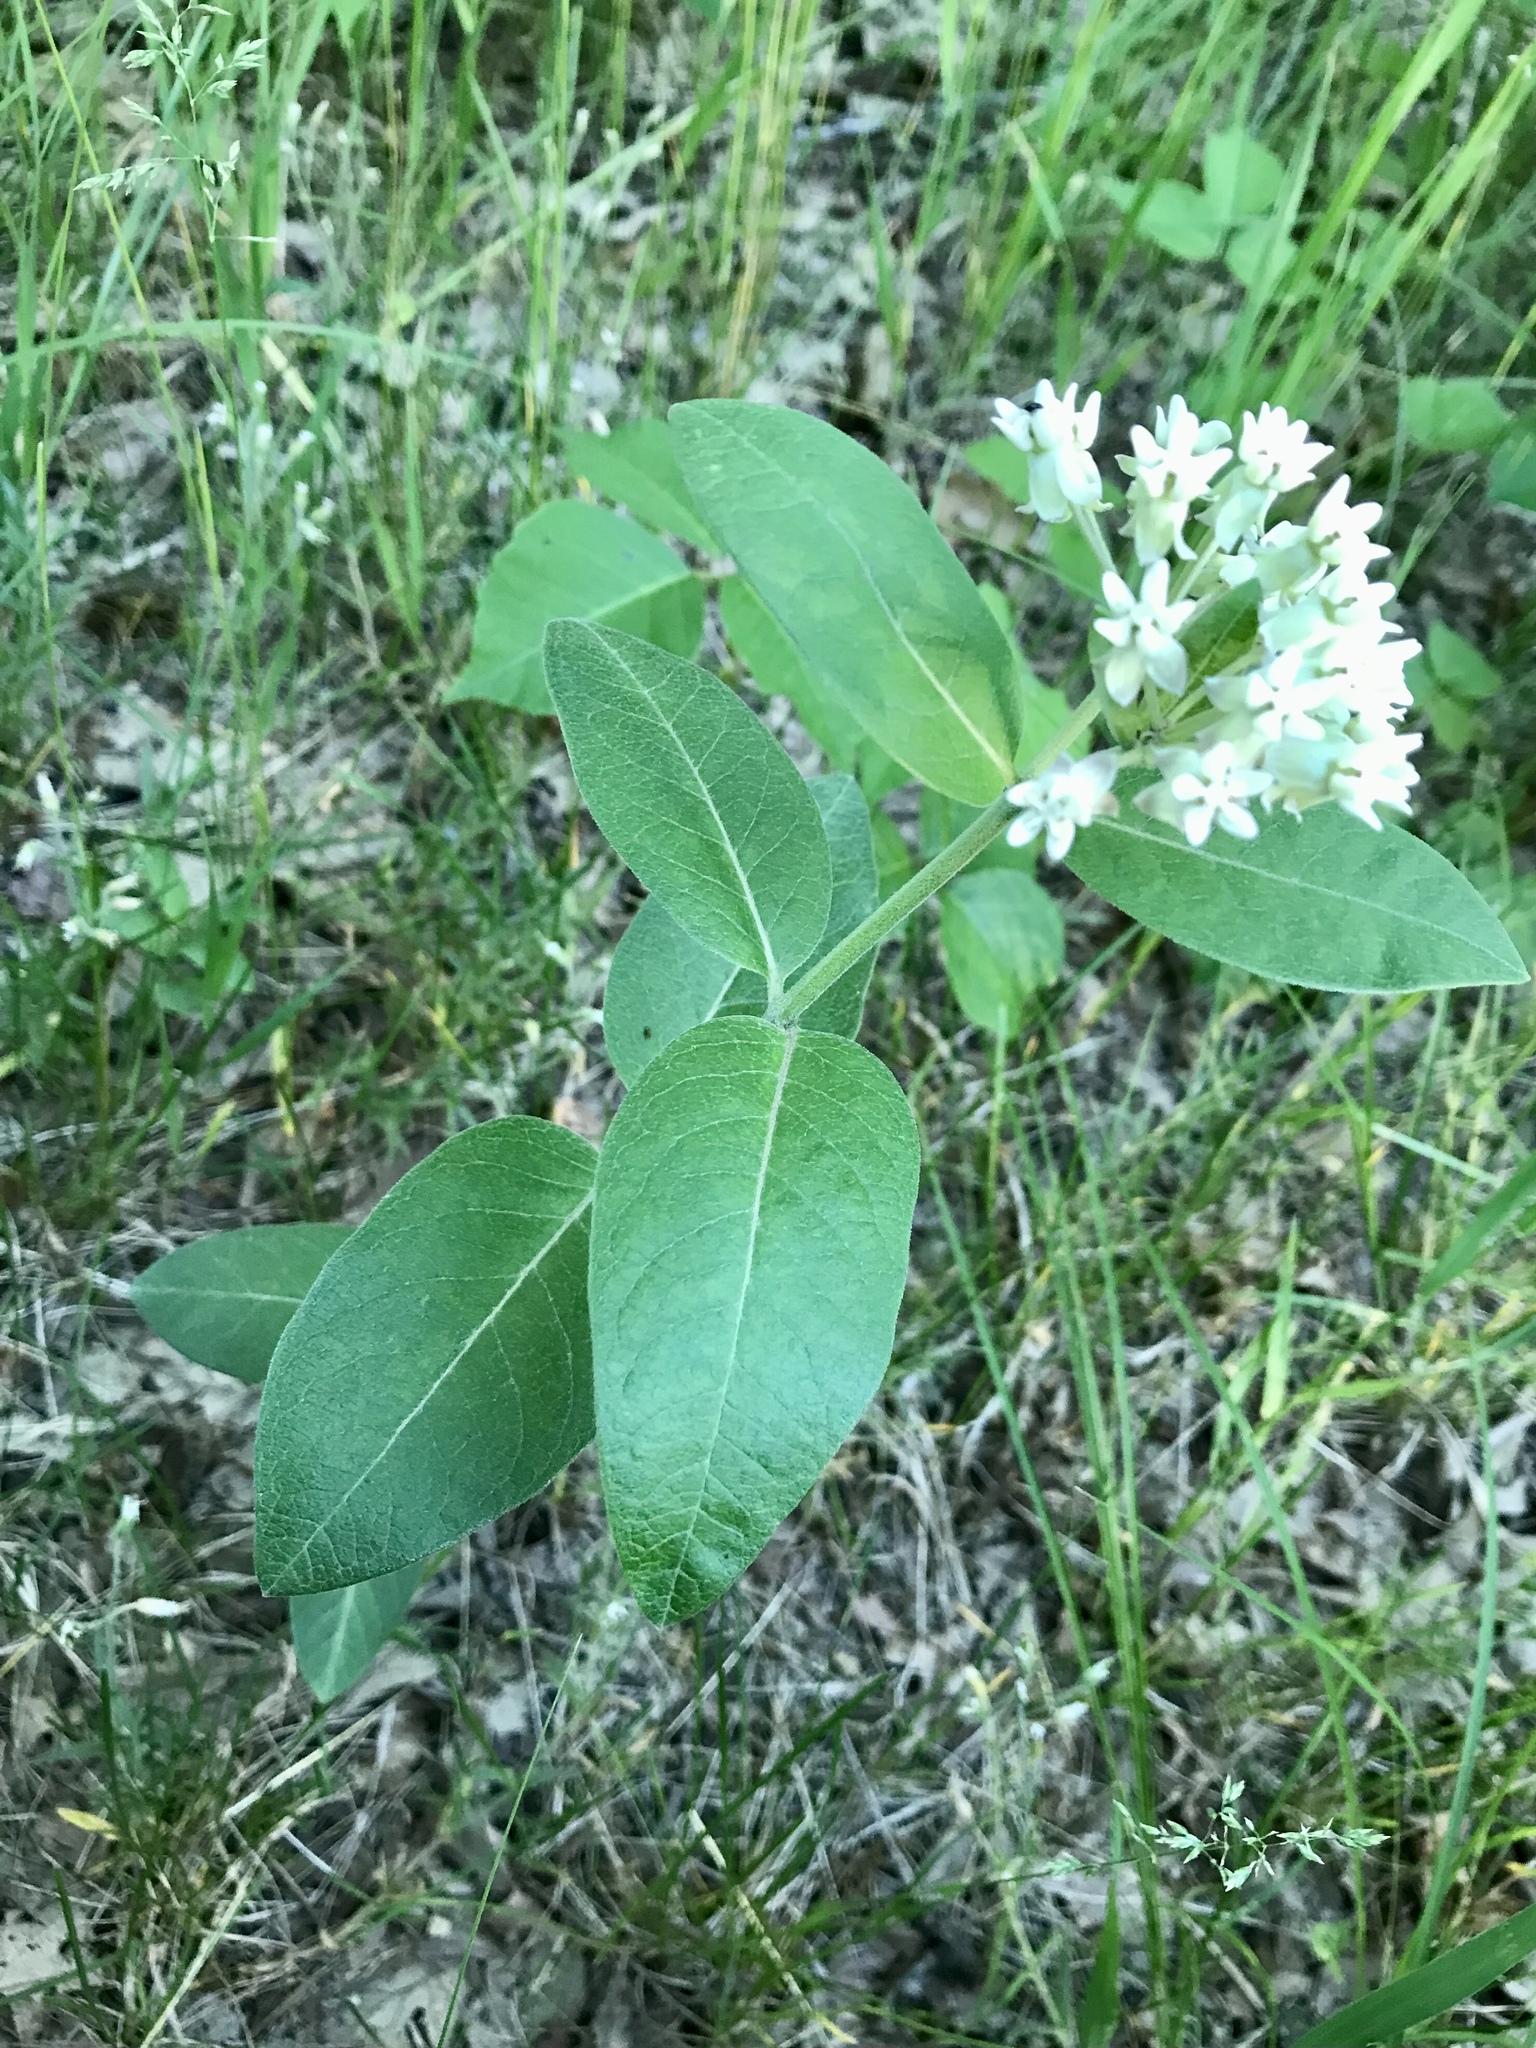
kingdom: Plantae
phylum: Tracheophyta
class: Magnoliopsida
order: Gentianales
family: Apocynaceae
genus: Asclepias
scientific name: Asclepias ovalifolia
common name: Dwarf milkweed
